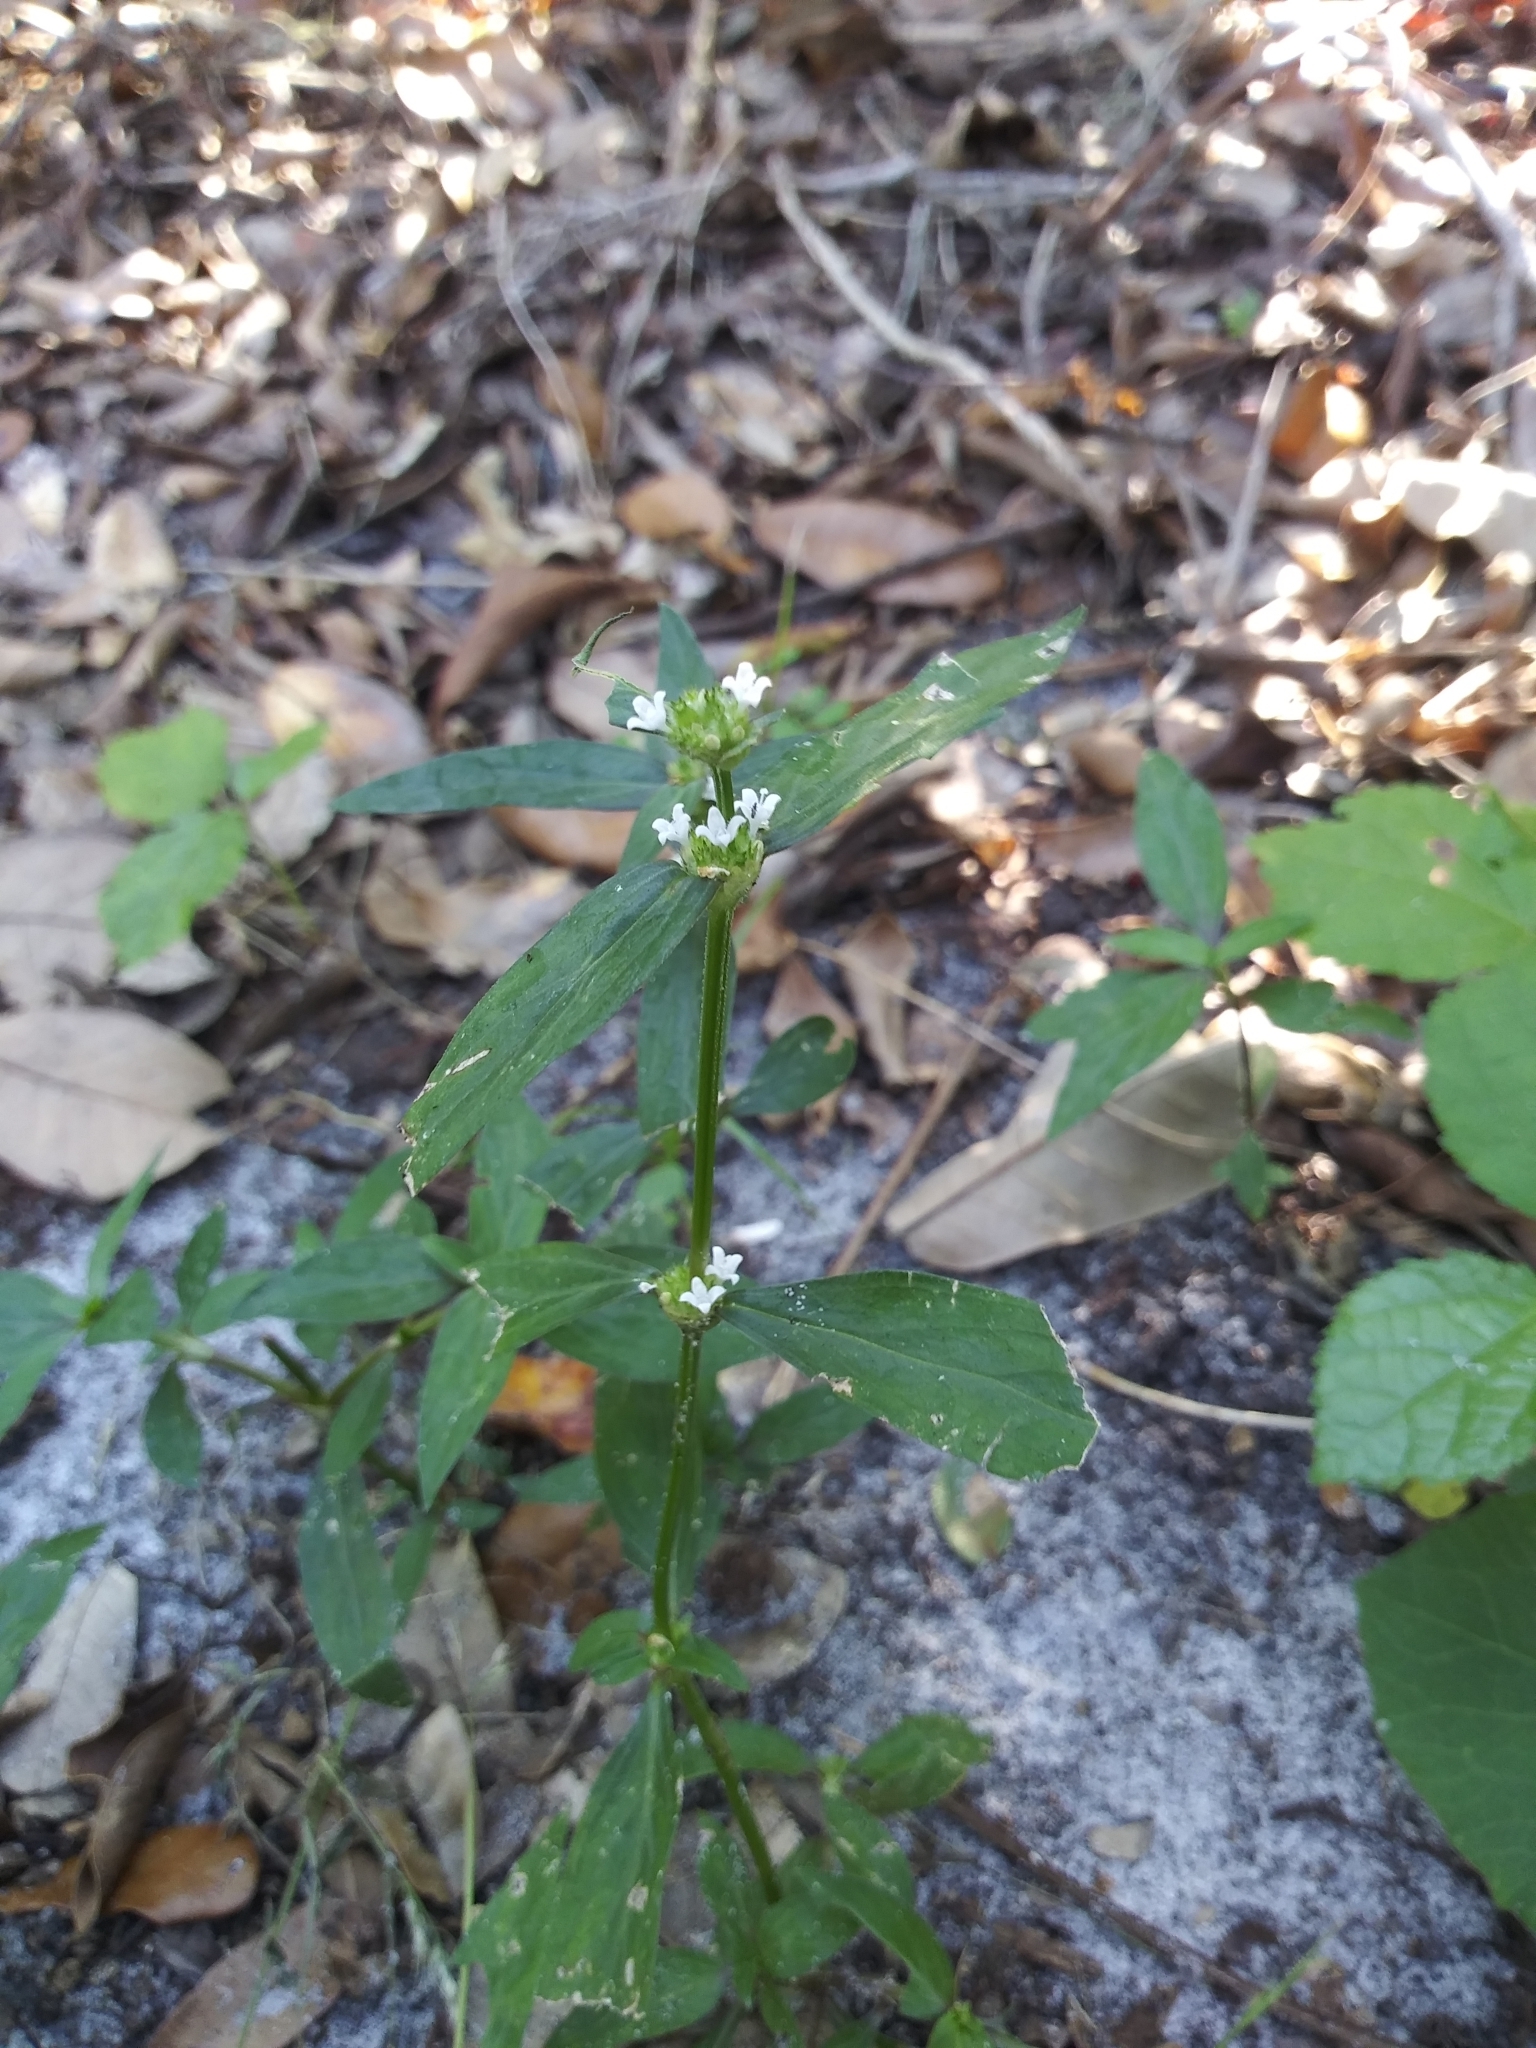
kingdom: Plantae
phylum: Tracheophyta
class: Magnoliopsida
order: Gentianales
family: Rubiaceae
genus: Spermacoce
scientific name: Spermacoce remota
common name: Woodland false buttonweed
